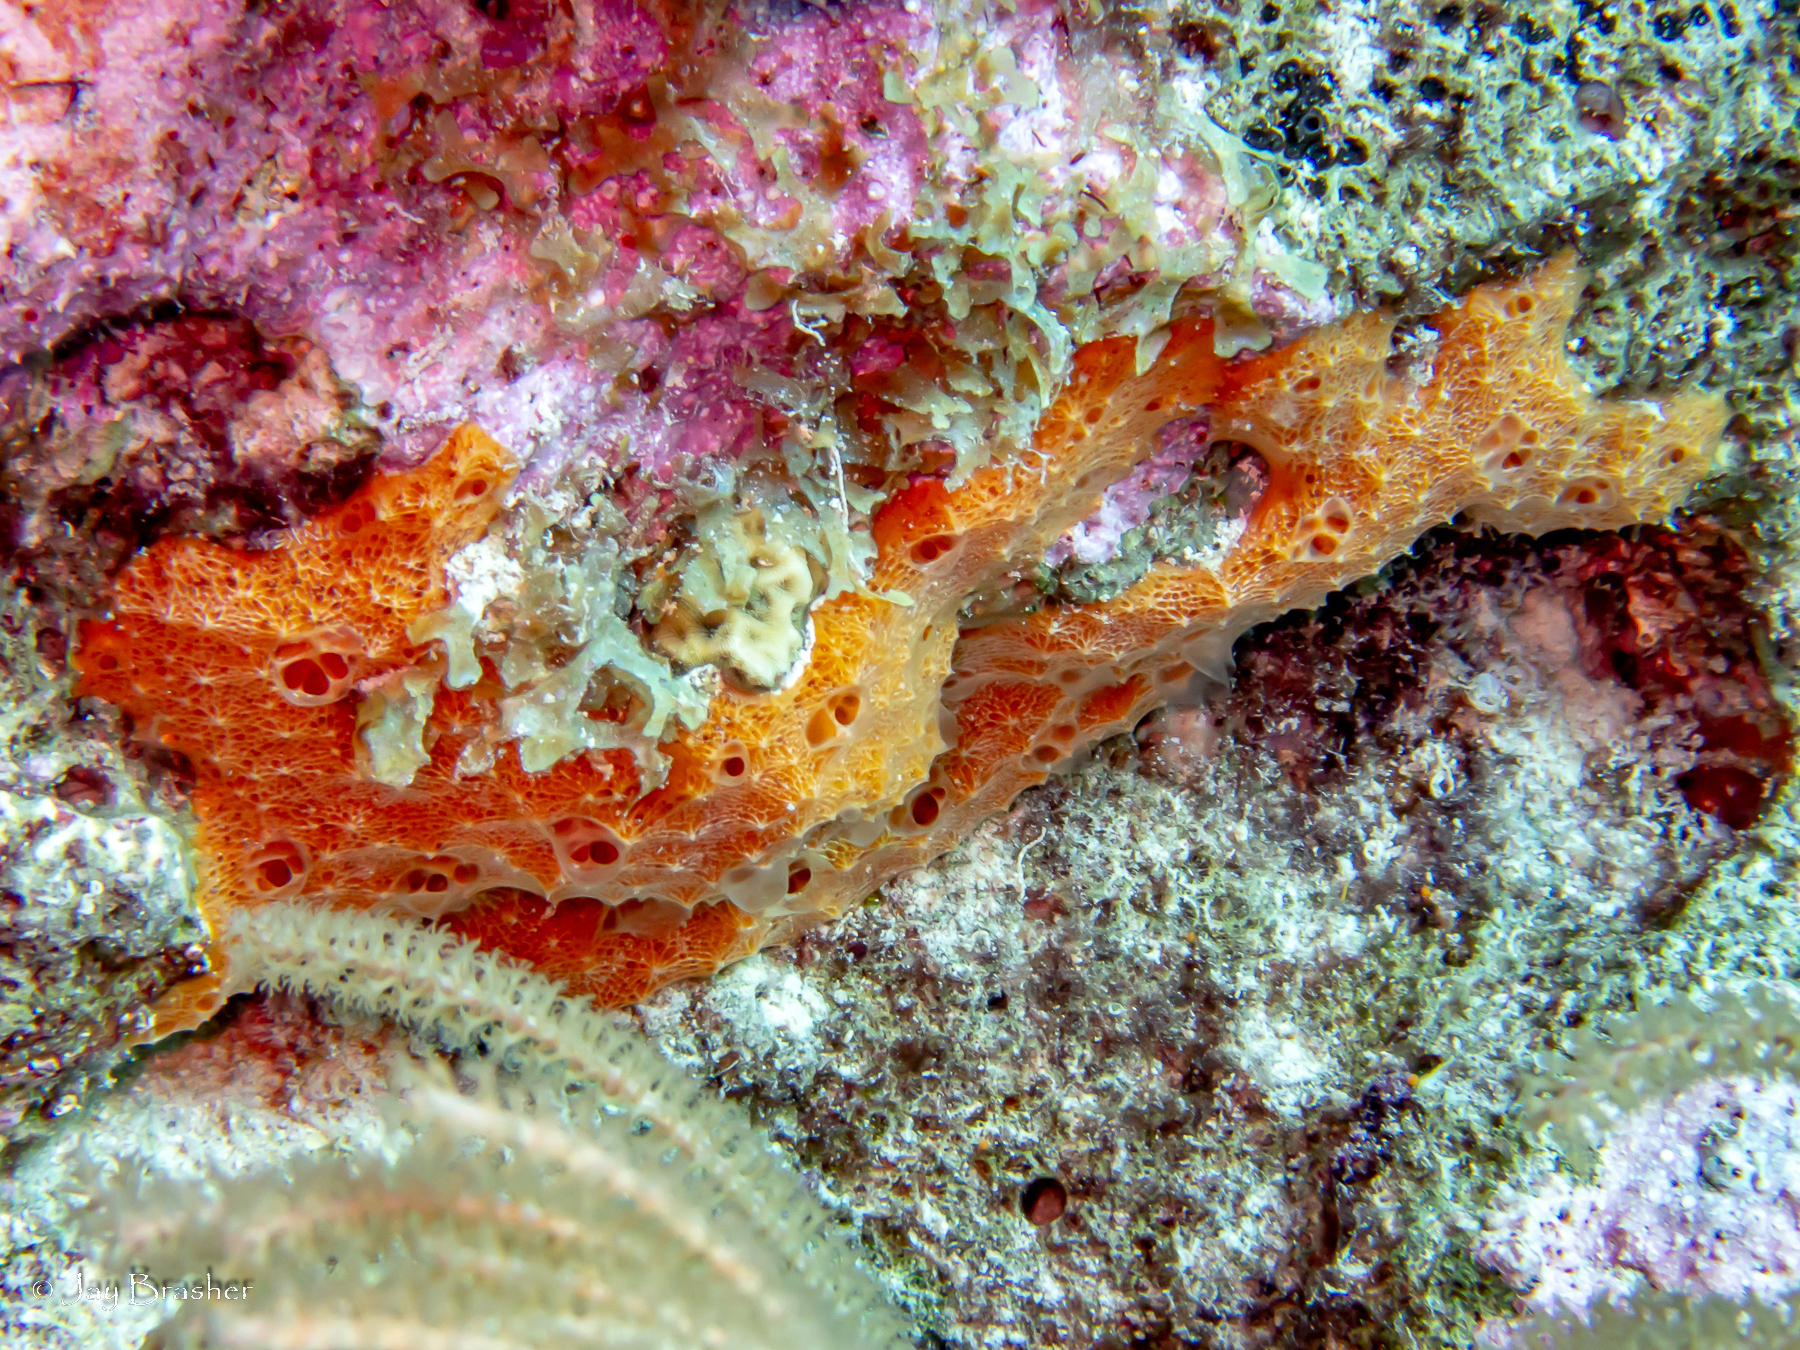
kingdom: Animalia
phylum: Porifera
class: Demospongiae
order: Scopalinida
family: Scopalinidae
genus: Scopalina
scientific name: Scopalina ruetzleri
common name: Orange lumpy encrusting sponge
